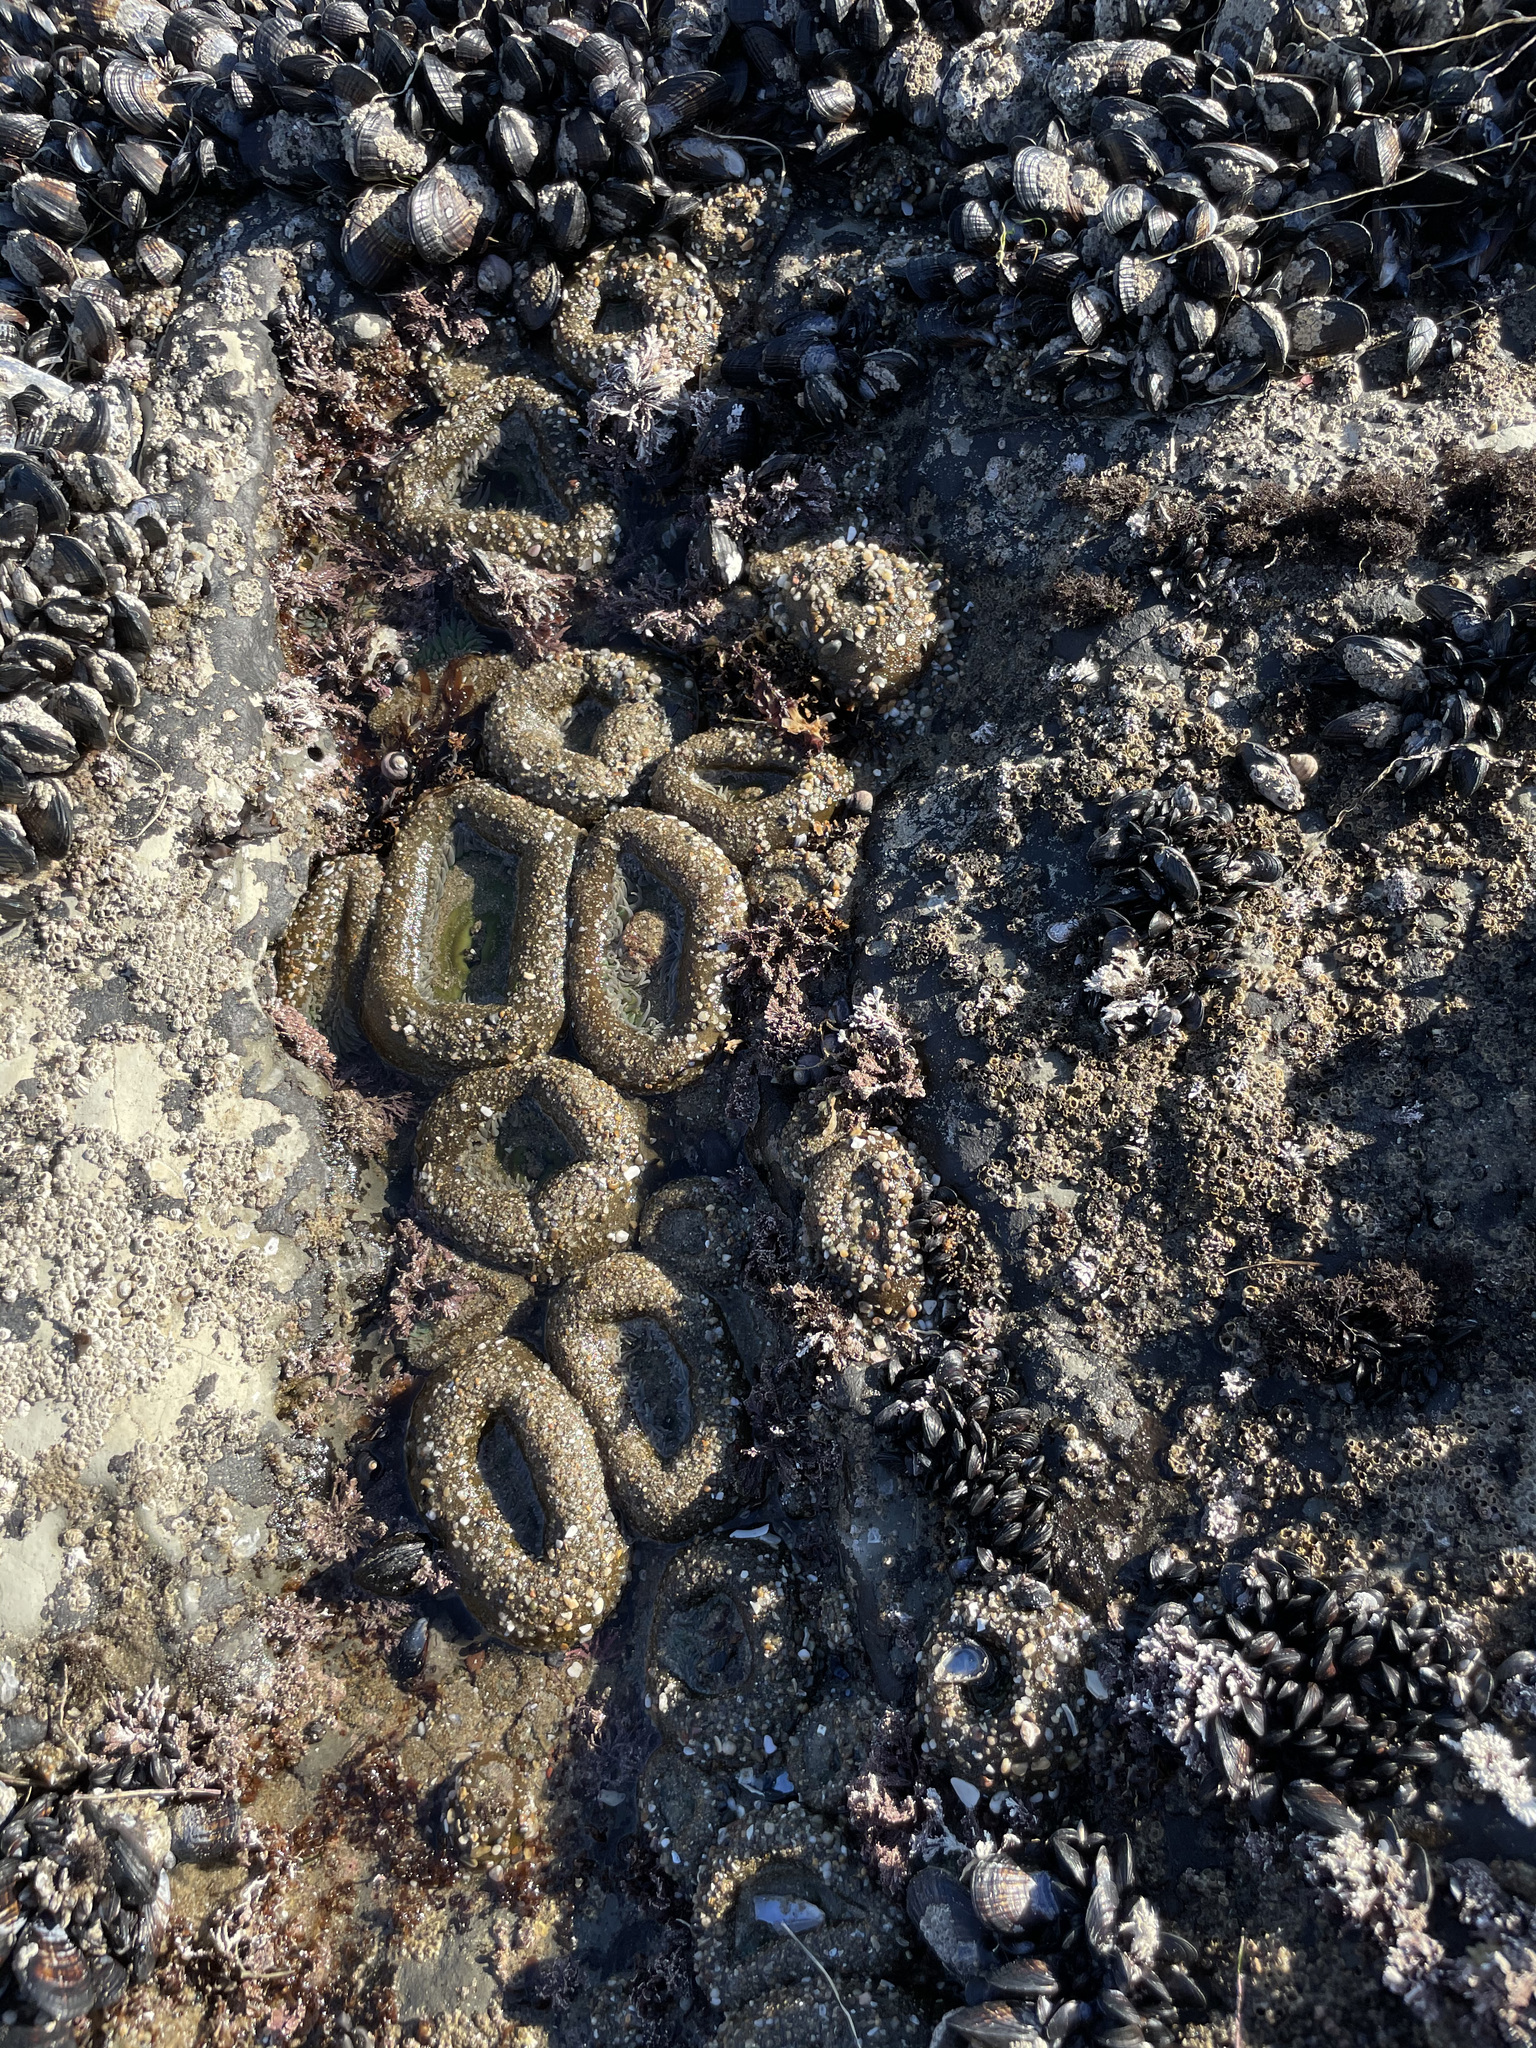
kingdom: Animalia
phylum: Cnidaria
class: Anthozoa
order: Actiniaria
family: Actiniidae
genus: Anthopleura
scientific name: Anthopleura xanthogrammica
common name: Giant green anemone
